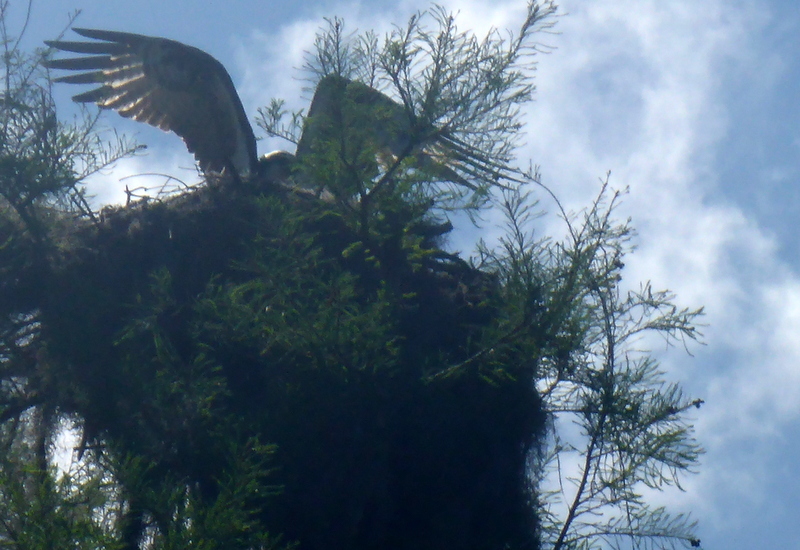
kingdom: Animalia
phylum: Chordata
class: Aves
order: Accipitriformes
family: Pandionidae
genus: Pandion
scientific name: Pandion haliaetus
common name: Osprey
